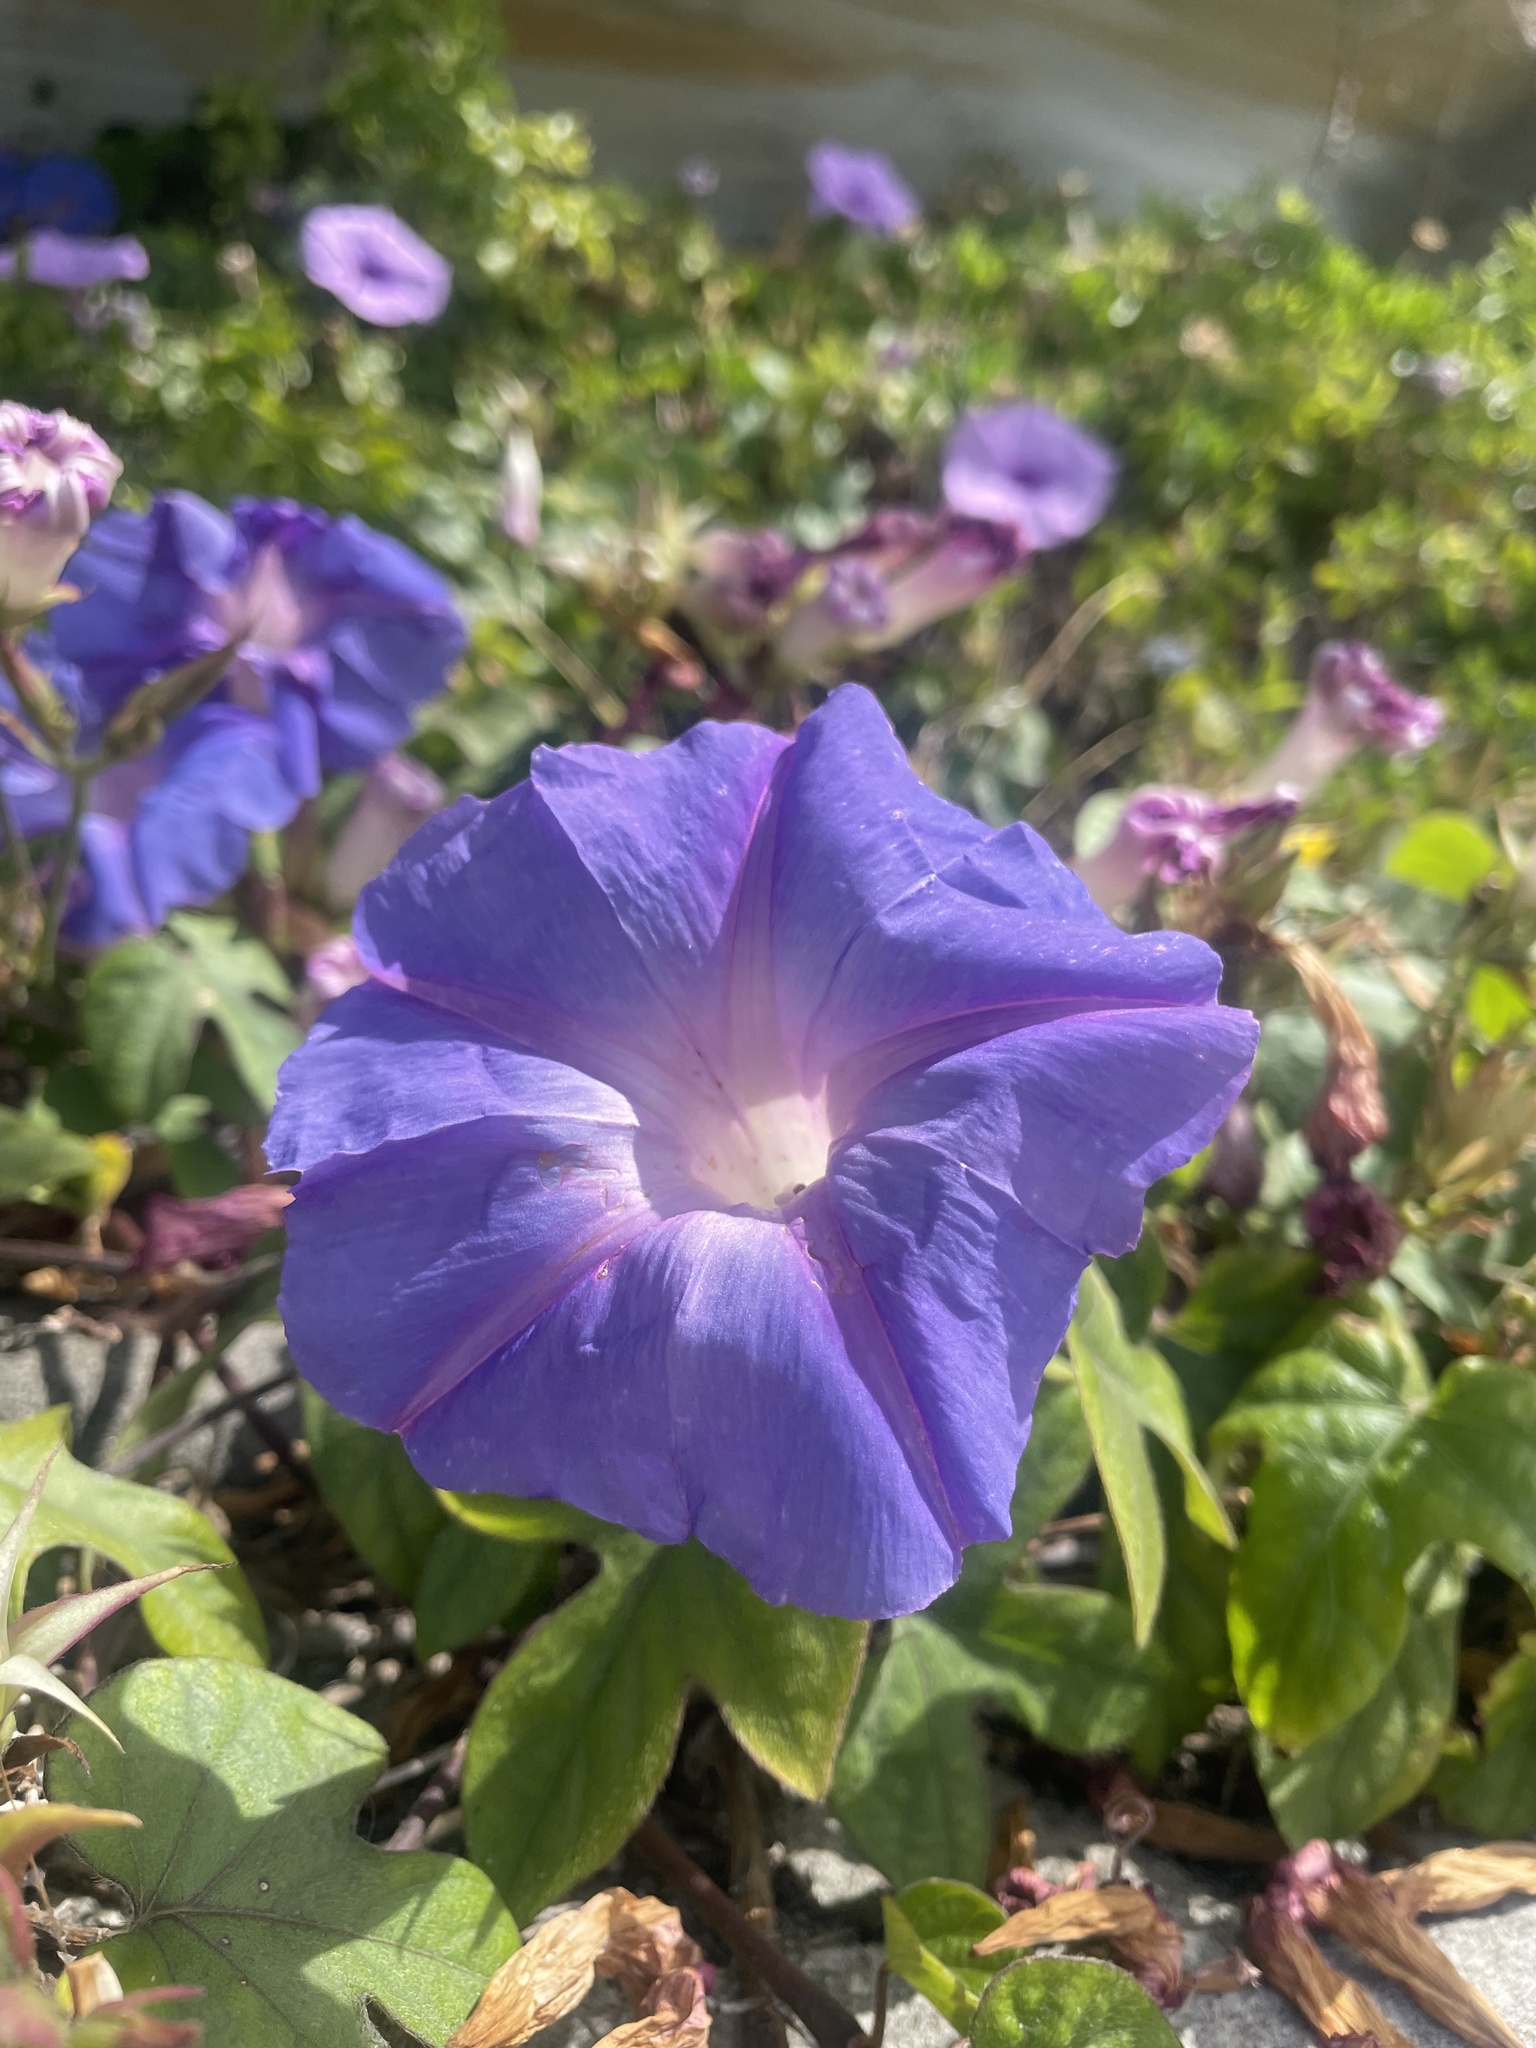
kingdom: Plantae
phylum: Tracheophyta
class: Magnoliopsida
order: Solanales
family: Convolvulaceae
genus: Ipomoea
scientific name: Ipomoea indica
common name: Blue dawnflower
